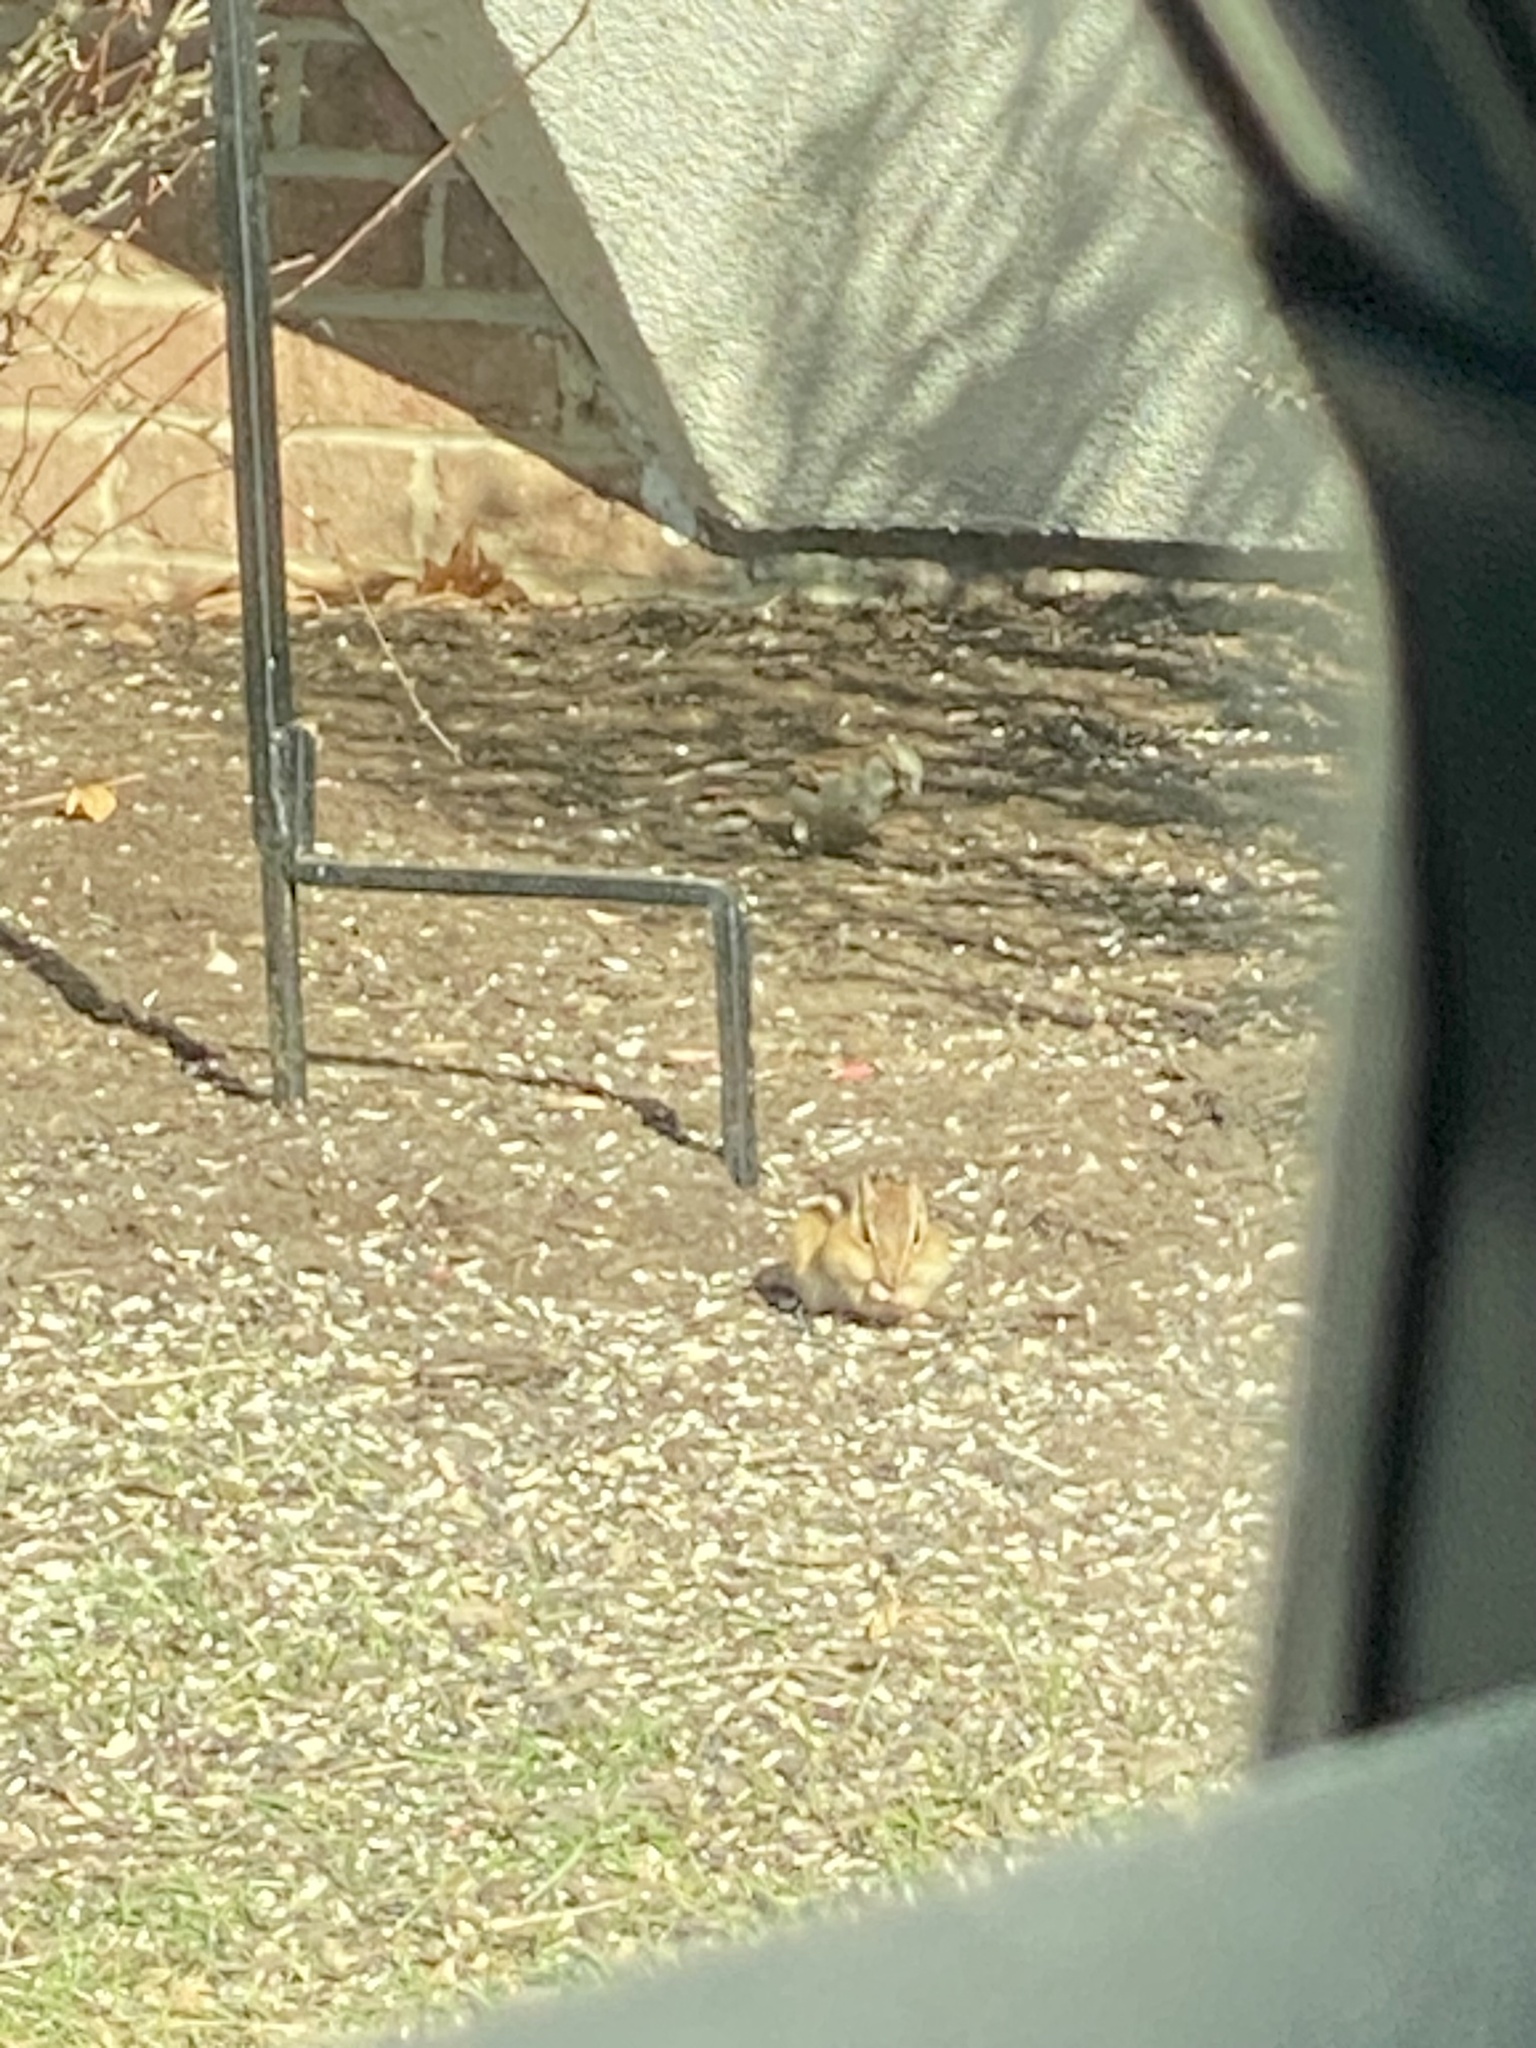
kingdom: Animalia
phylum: Chordata
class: Mammalia
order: Rodentia
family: Sciuridae
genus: Tamias
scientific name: Tamias striatus
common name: Eastern chipmunk
